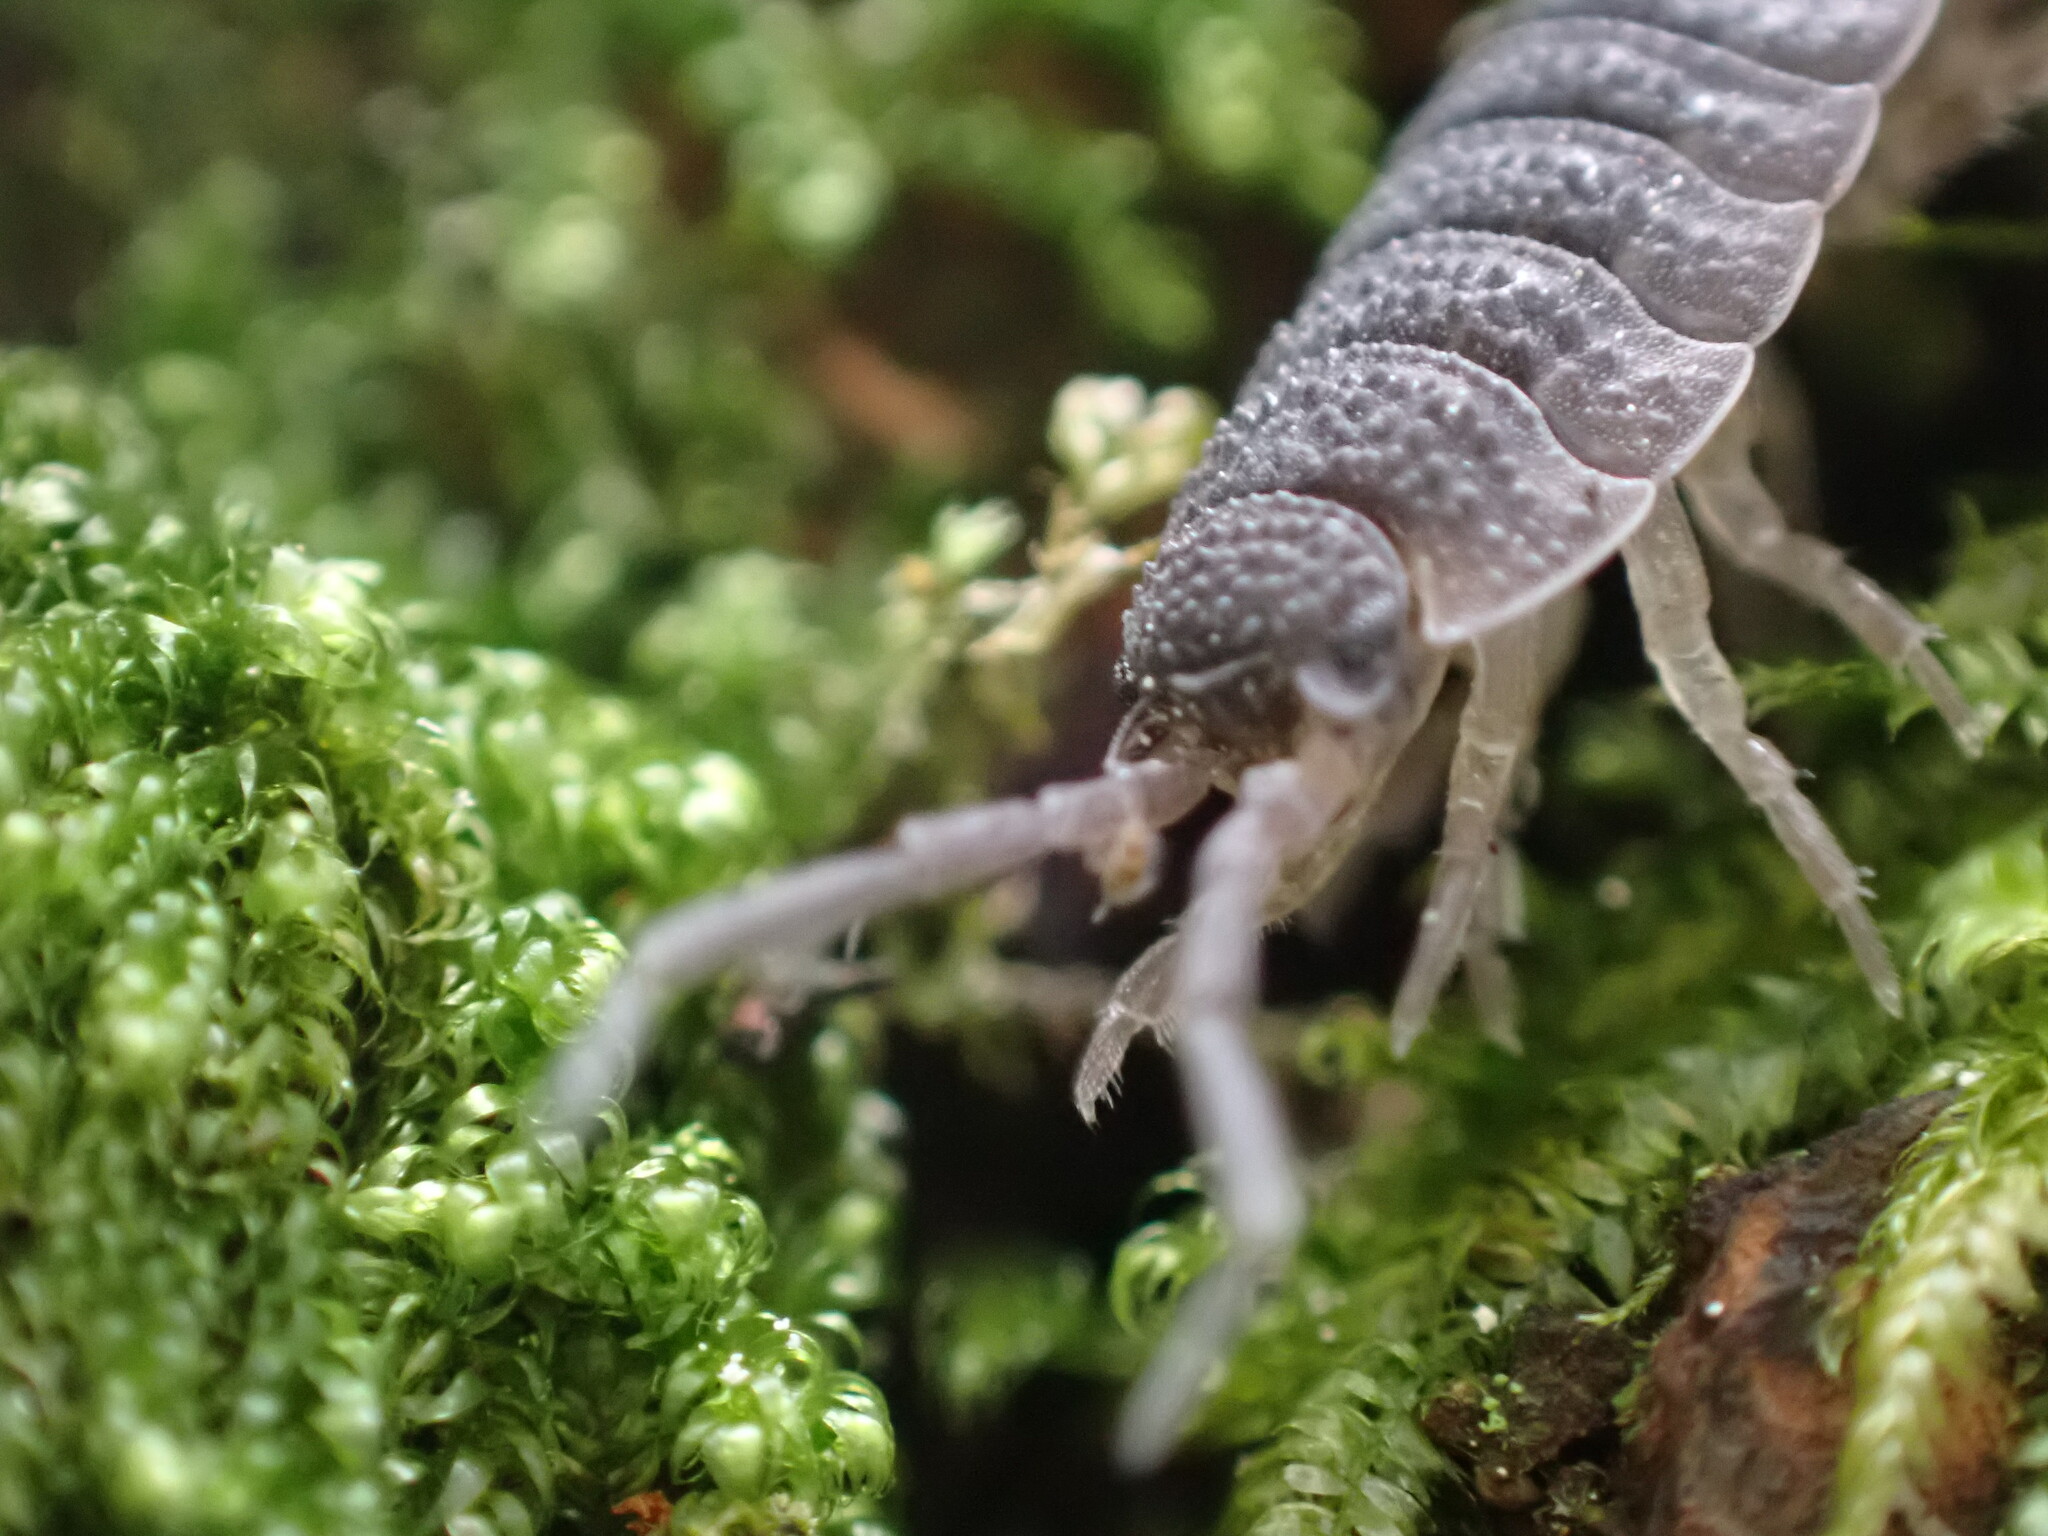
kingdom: Animalia
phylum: Arthropoda
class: Malacostraca
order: Isopoda
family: Porcellionidae
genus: Porcellio
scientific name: Porcellio scaber
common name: Common rough woodlouse
